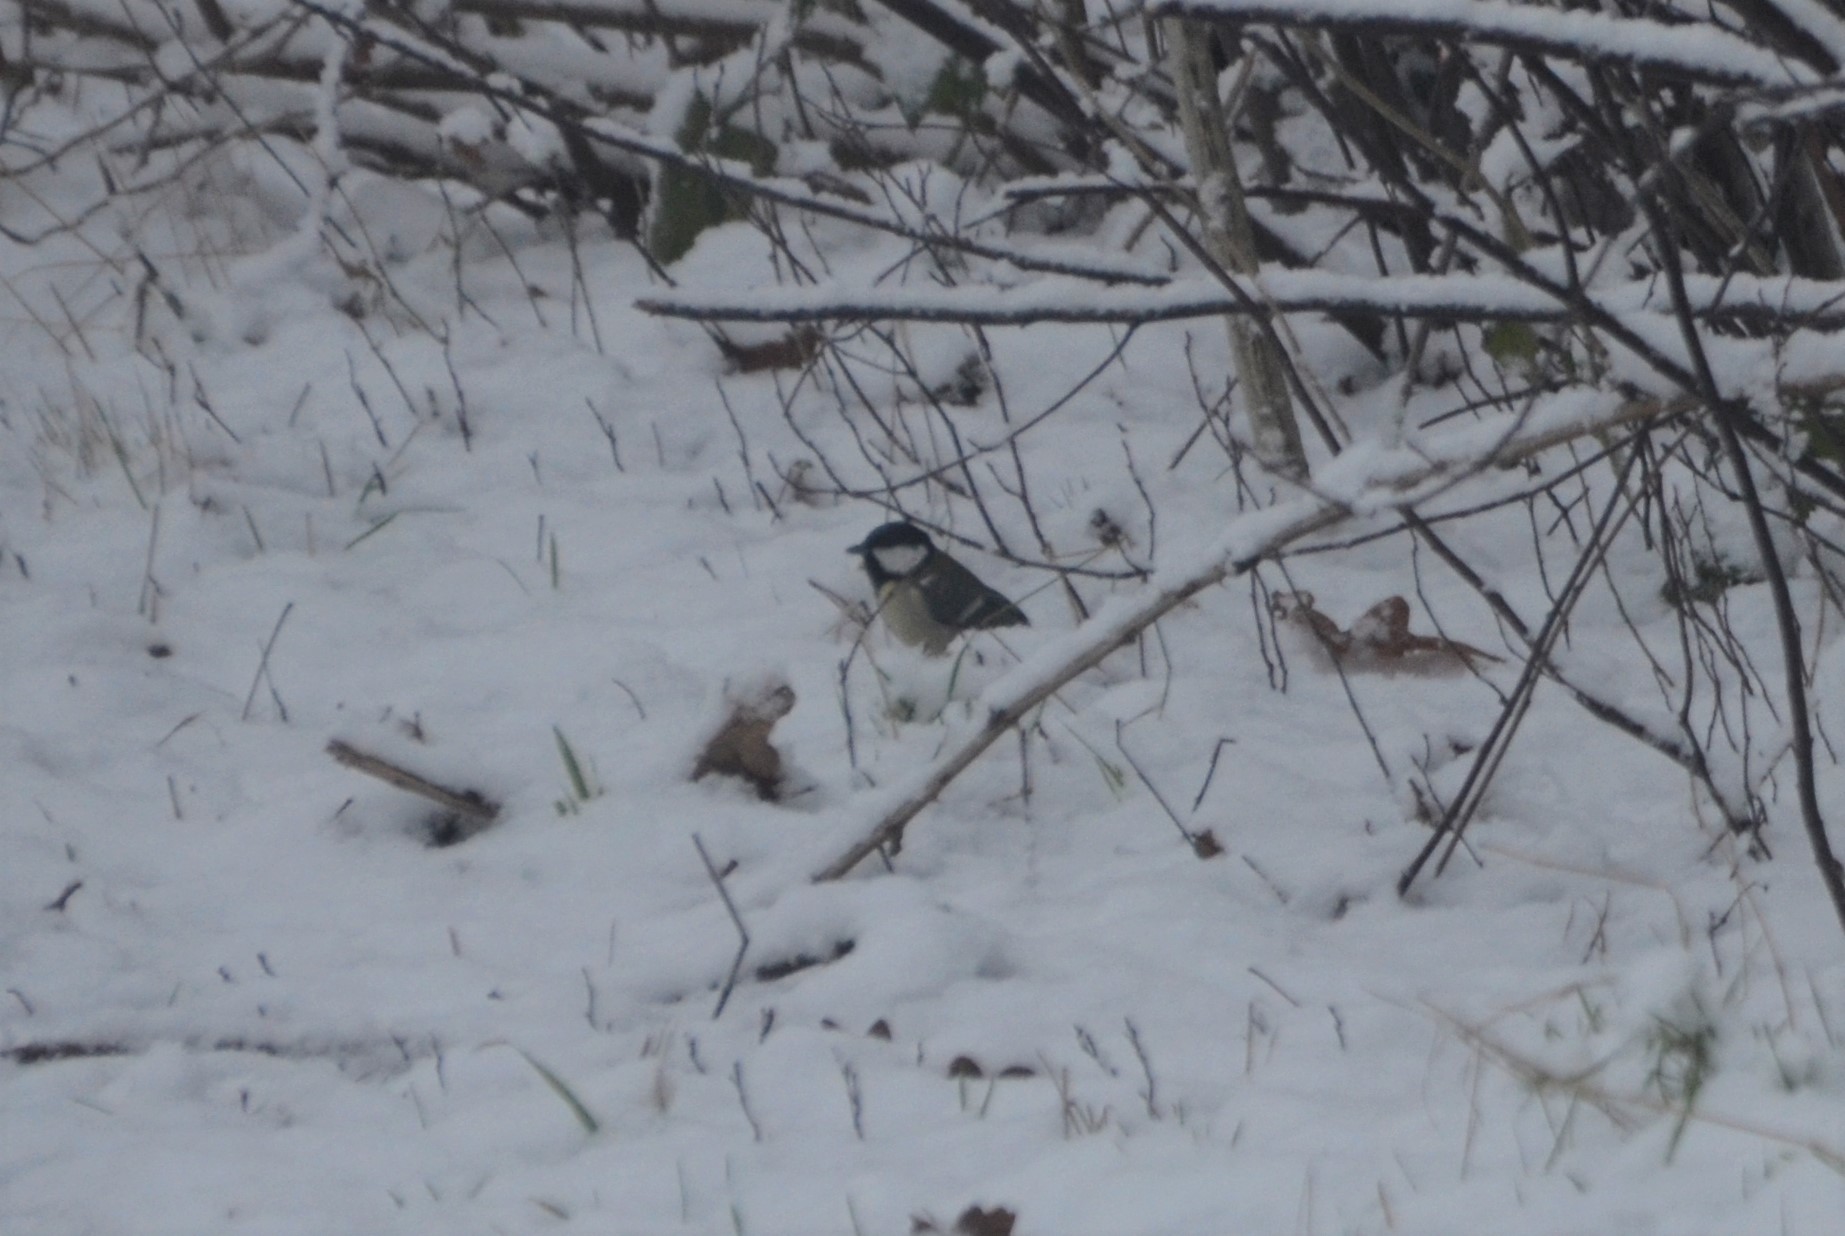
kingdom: Animalia
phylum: Chordata
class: Aves
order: Passeriformes
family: Paridae
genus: Parus
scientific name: Parus major
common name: Great tit
